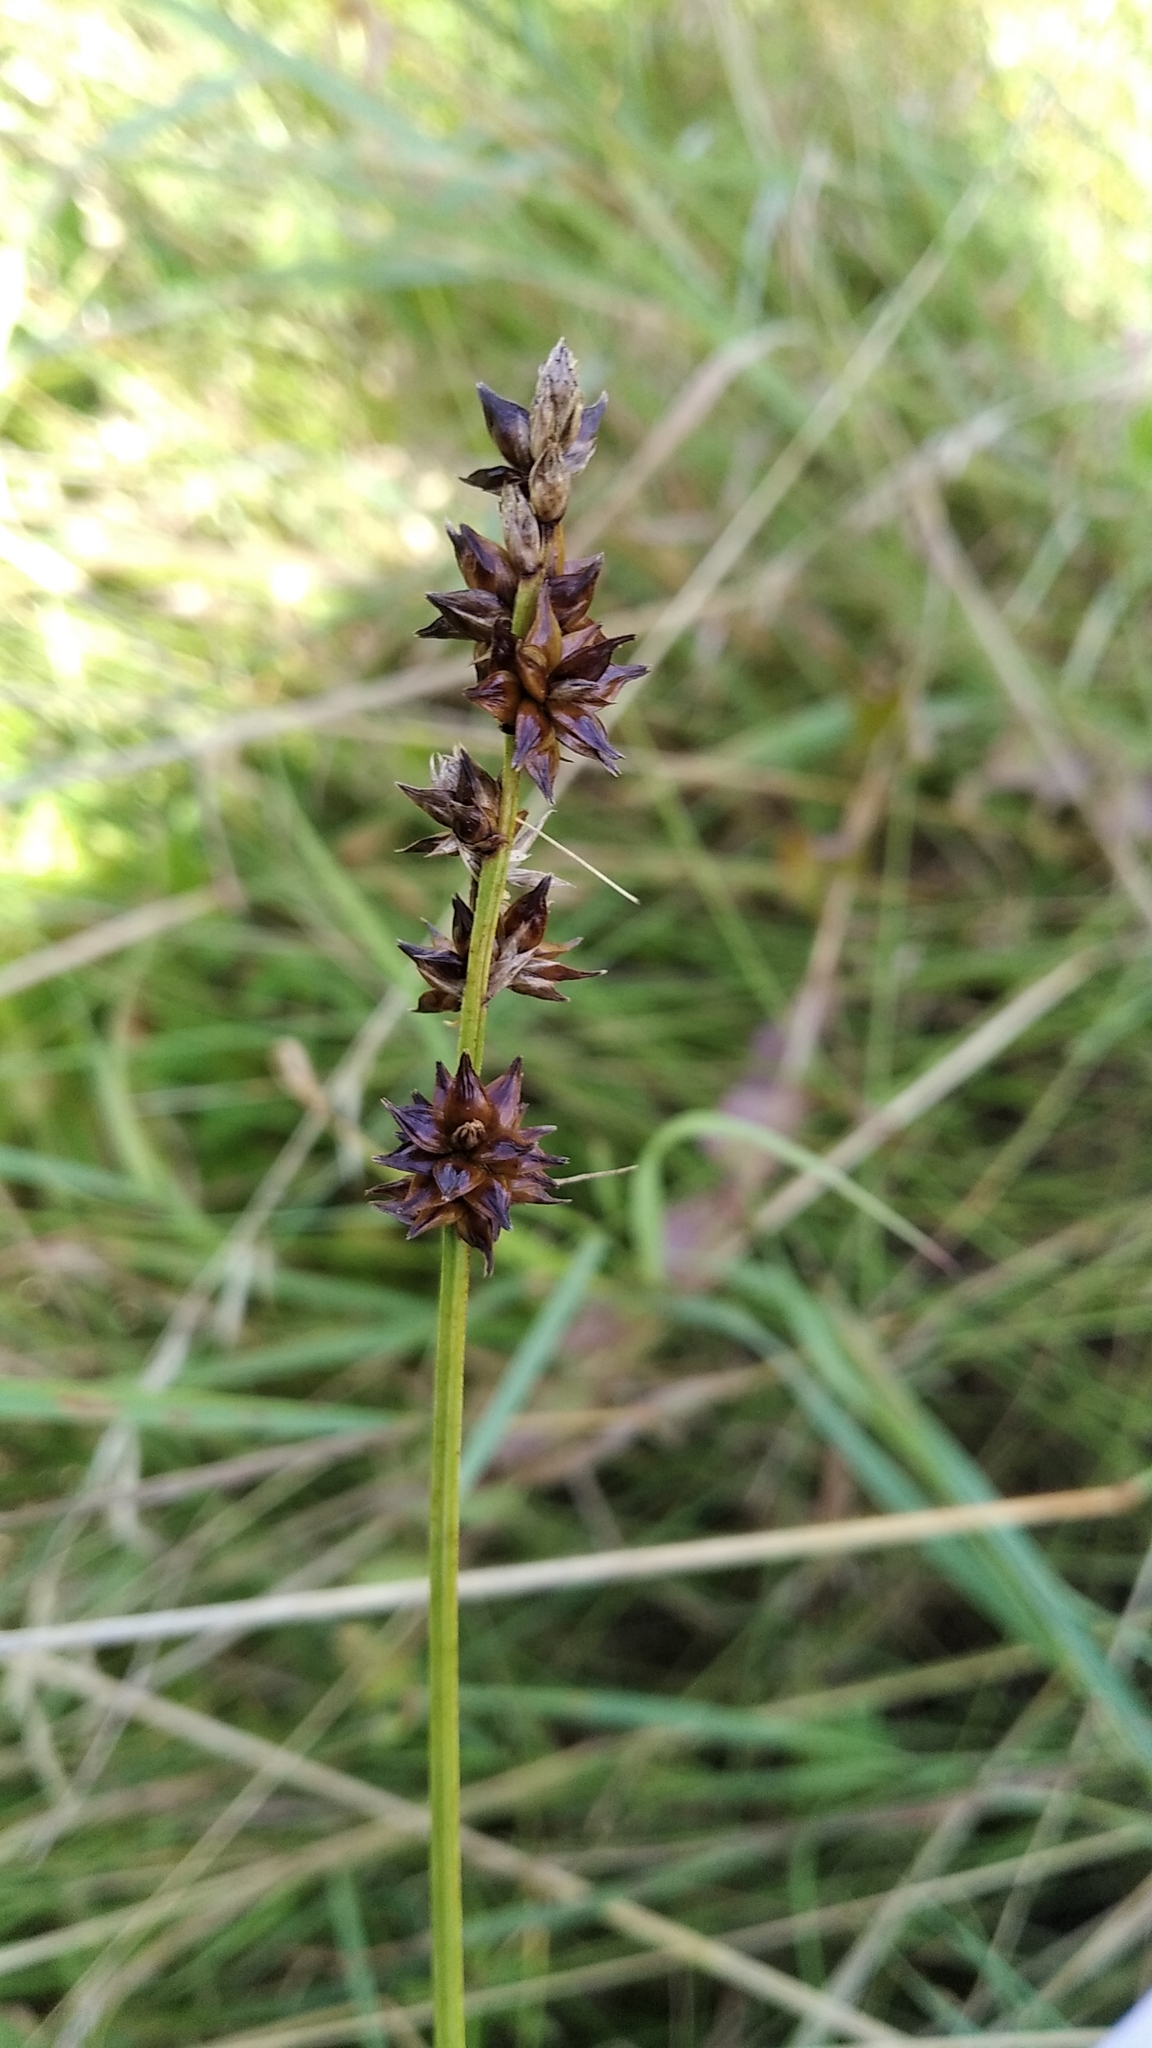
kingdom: Plantae
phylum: Tracheophyta
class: Liliopsida
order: Poales
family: Cyperaceae
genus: Carex
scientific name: Carex spicata
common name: Spiked sedge
